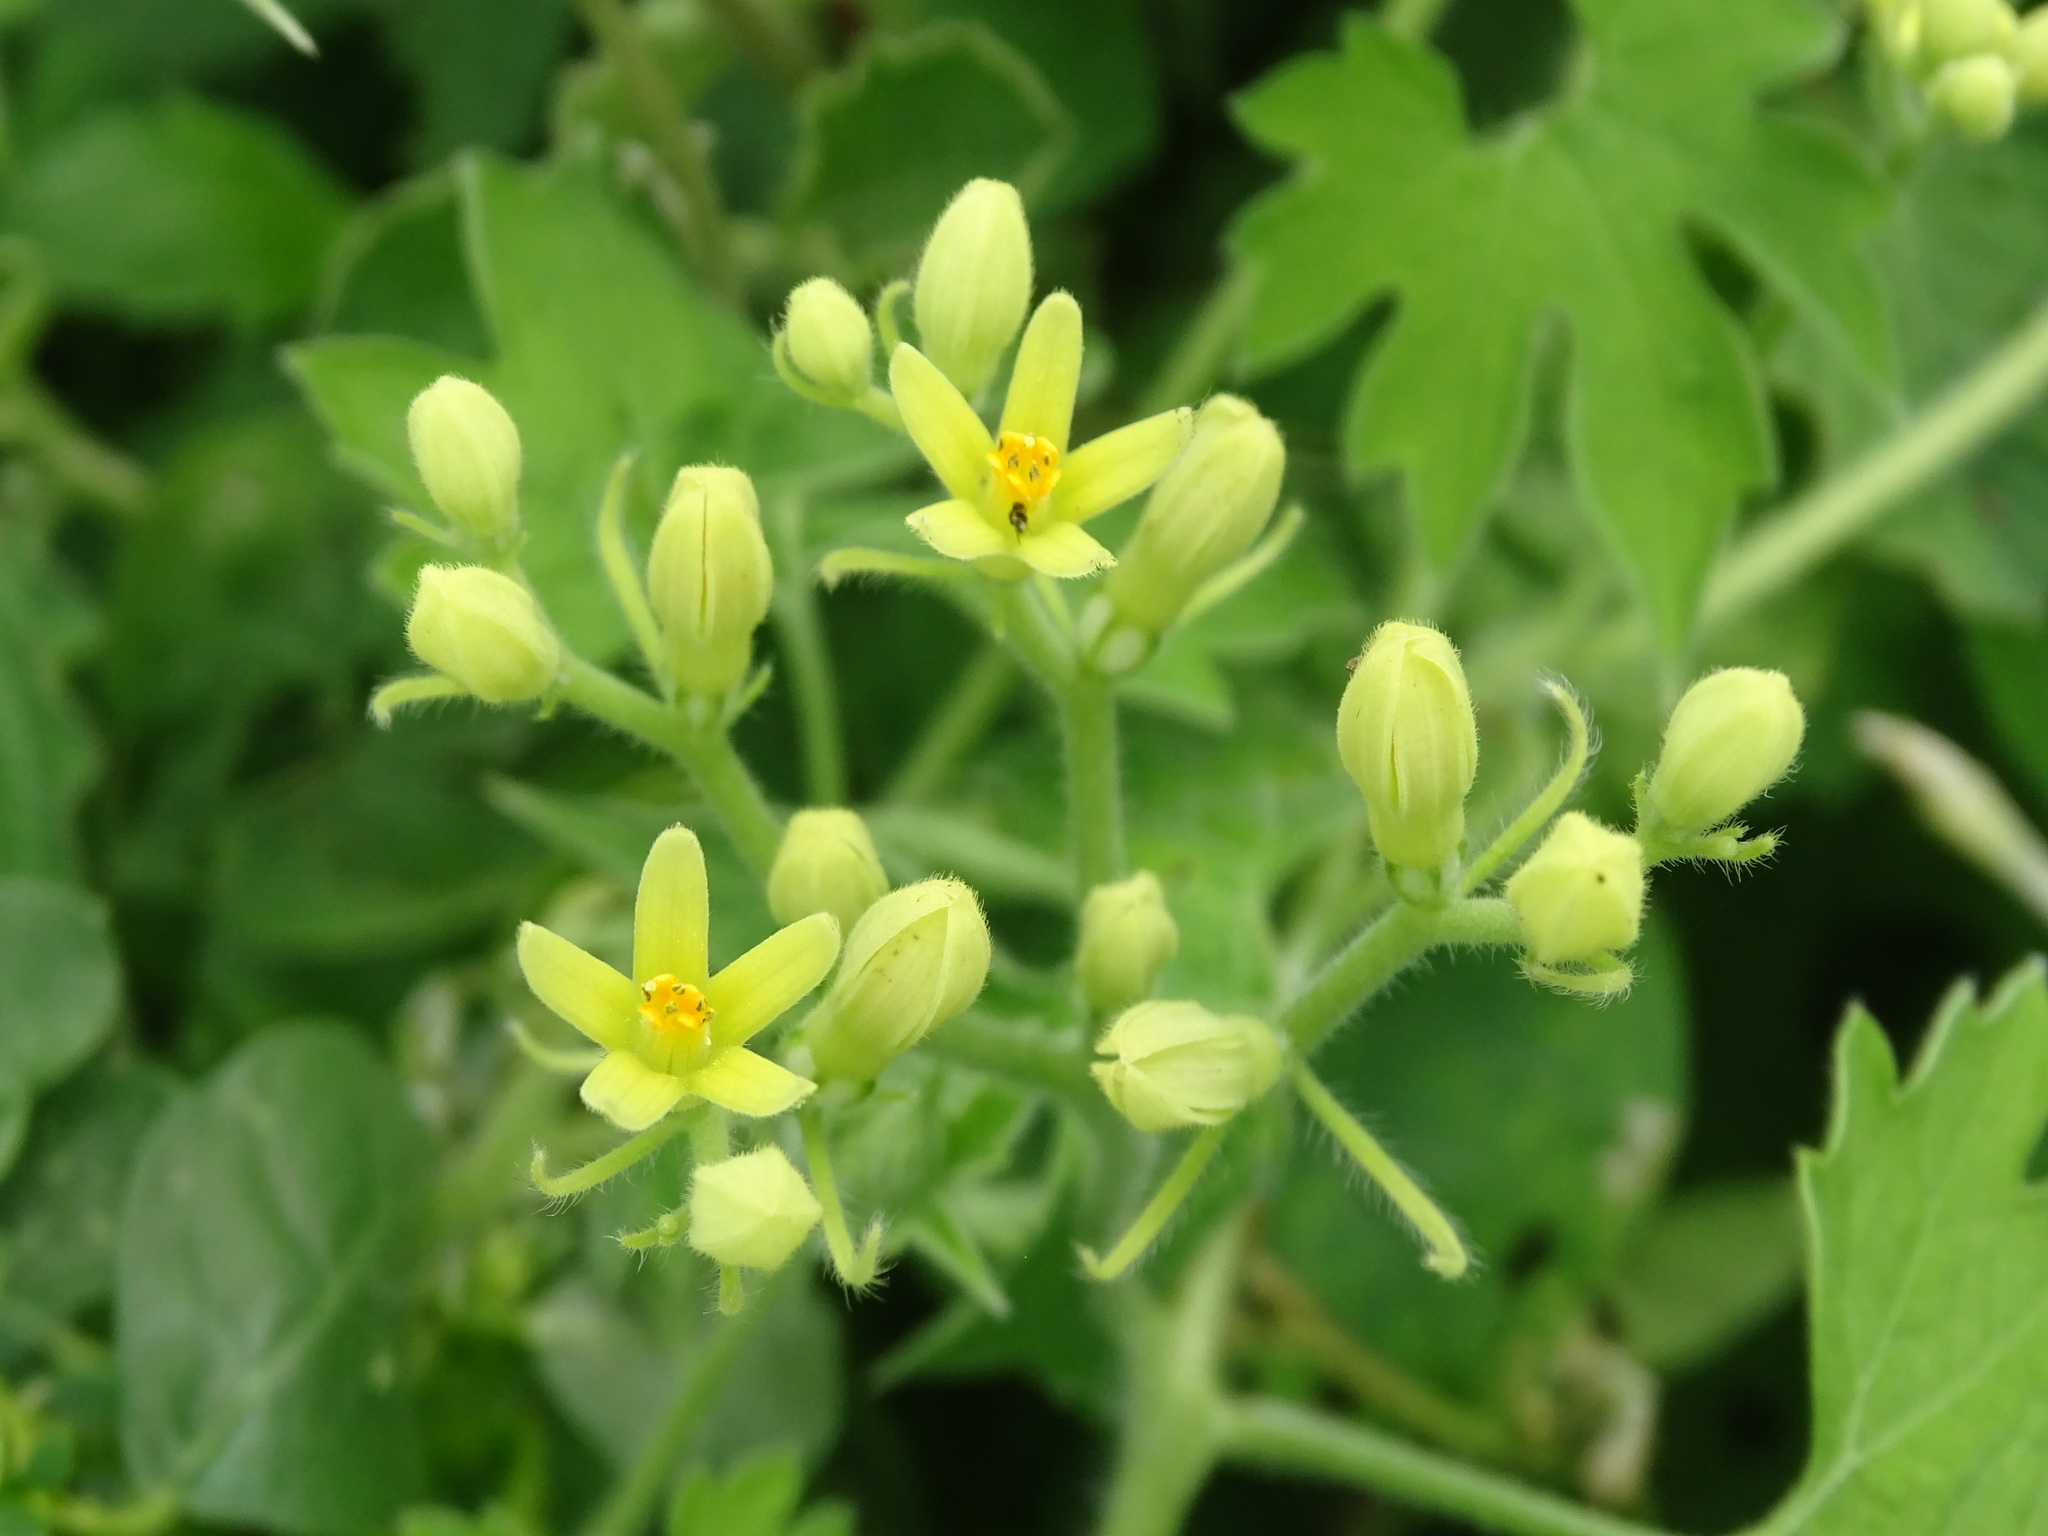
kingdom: Plantae
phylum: Tracheophyta
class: Magnoliopsida
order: Cornales
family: Loasaceae
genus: Gronovia
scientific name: Gronovia scandens
